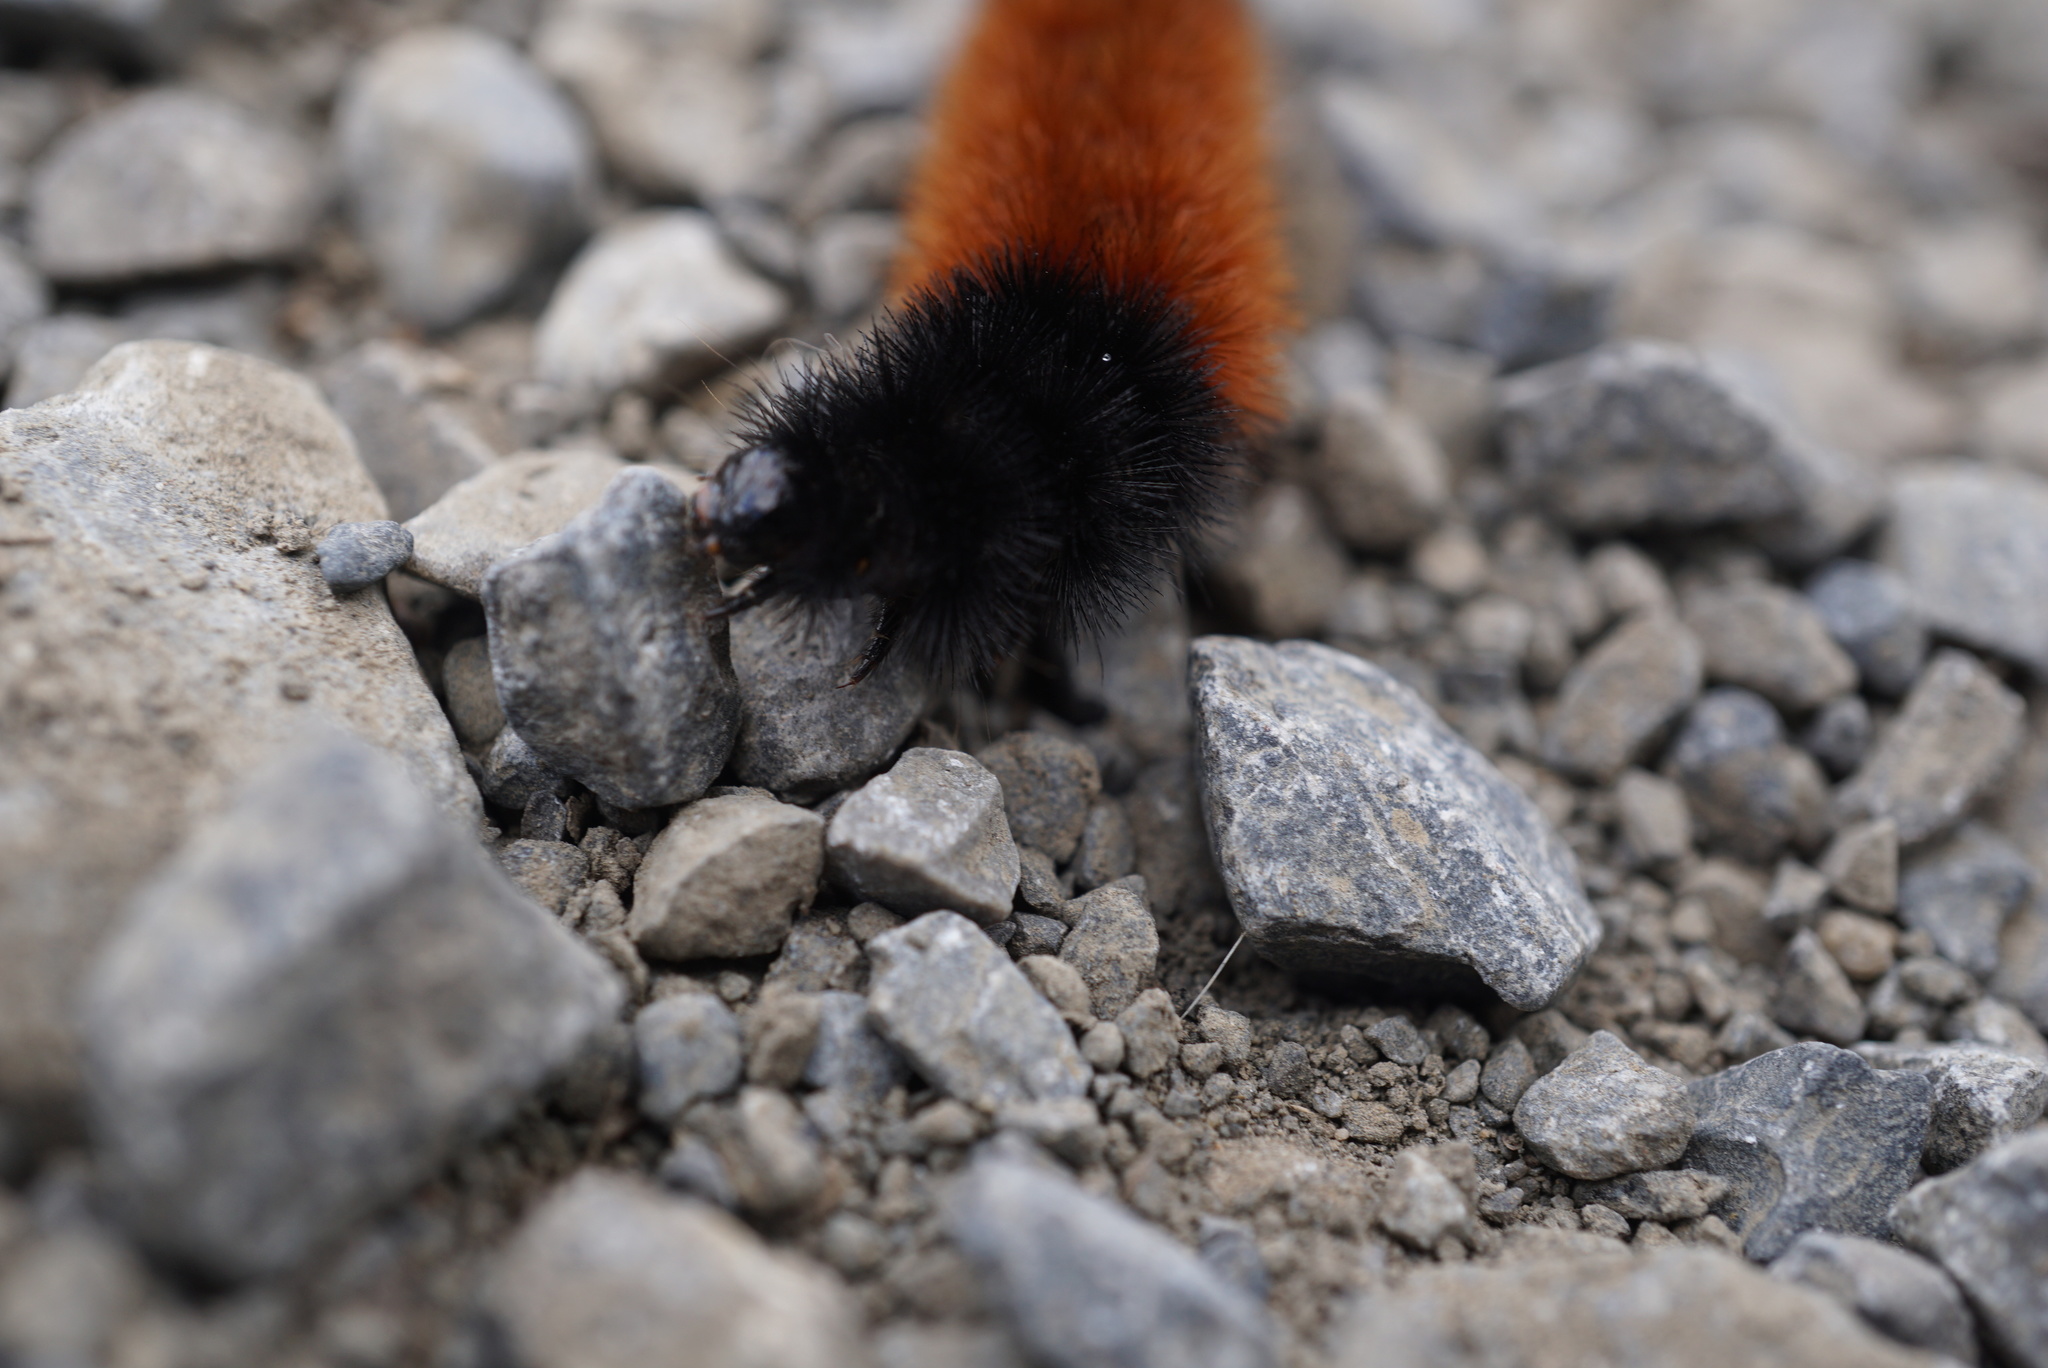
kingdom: Animalia
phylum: Arthropoda
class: Insecta
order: Lepidoptera
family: Erebidae
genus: Pyrrharctia
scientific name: Pyrrharctia isabella
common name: Isabella tiger moth
